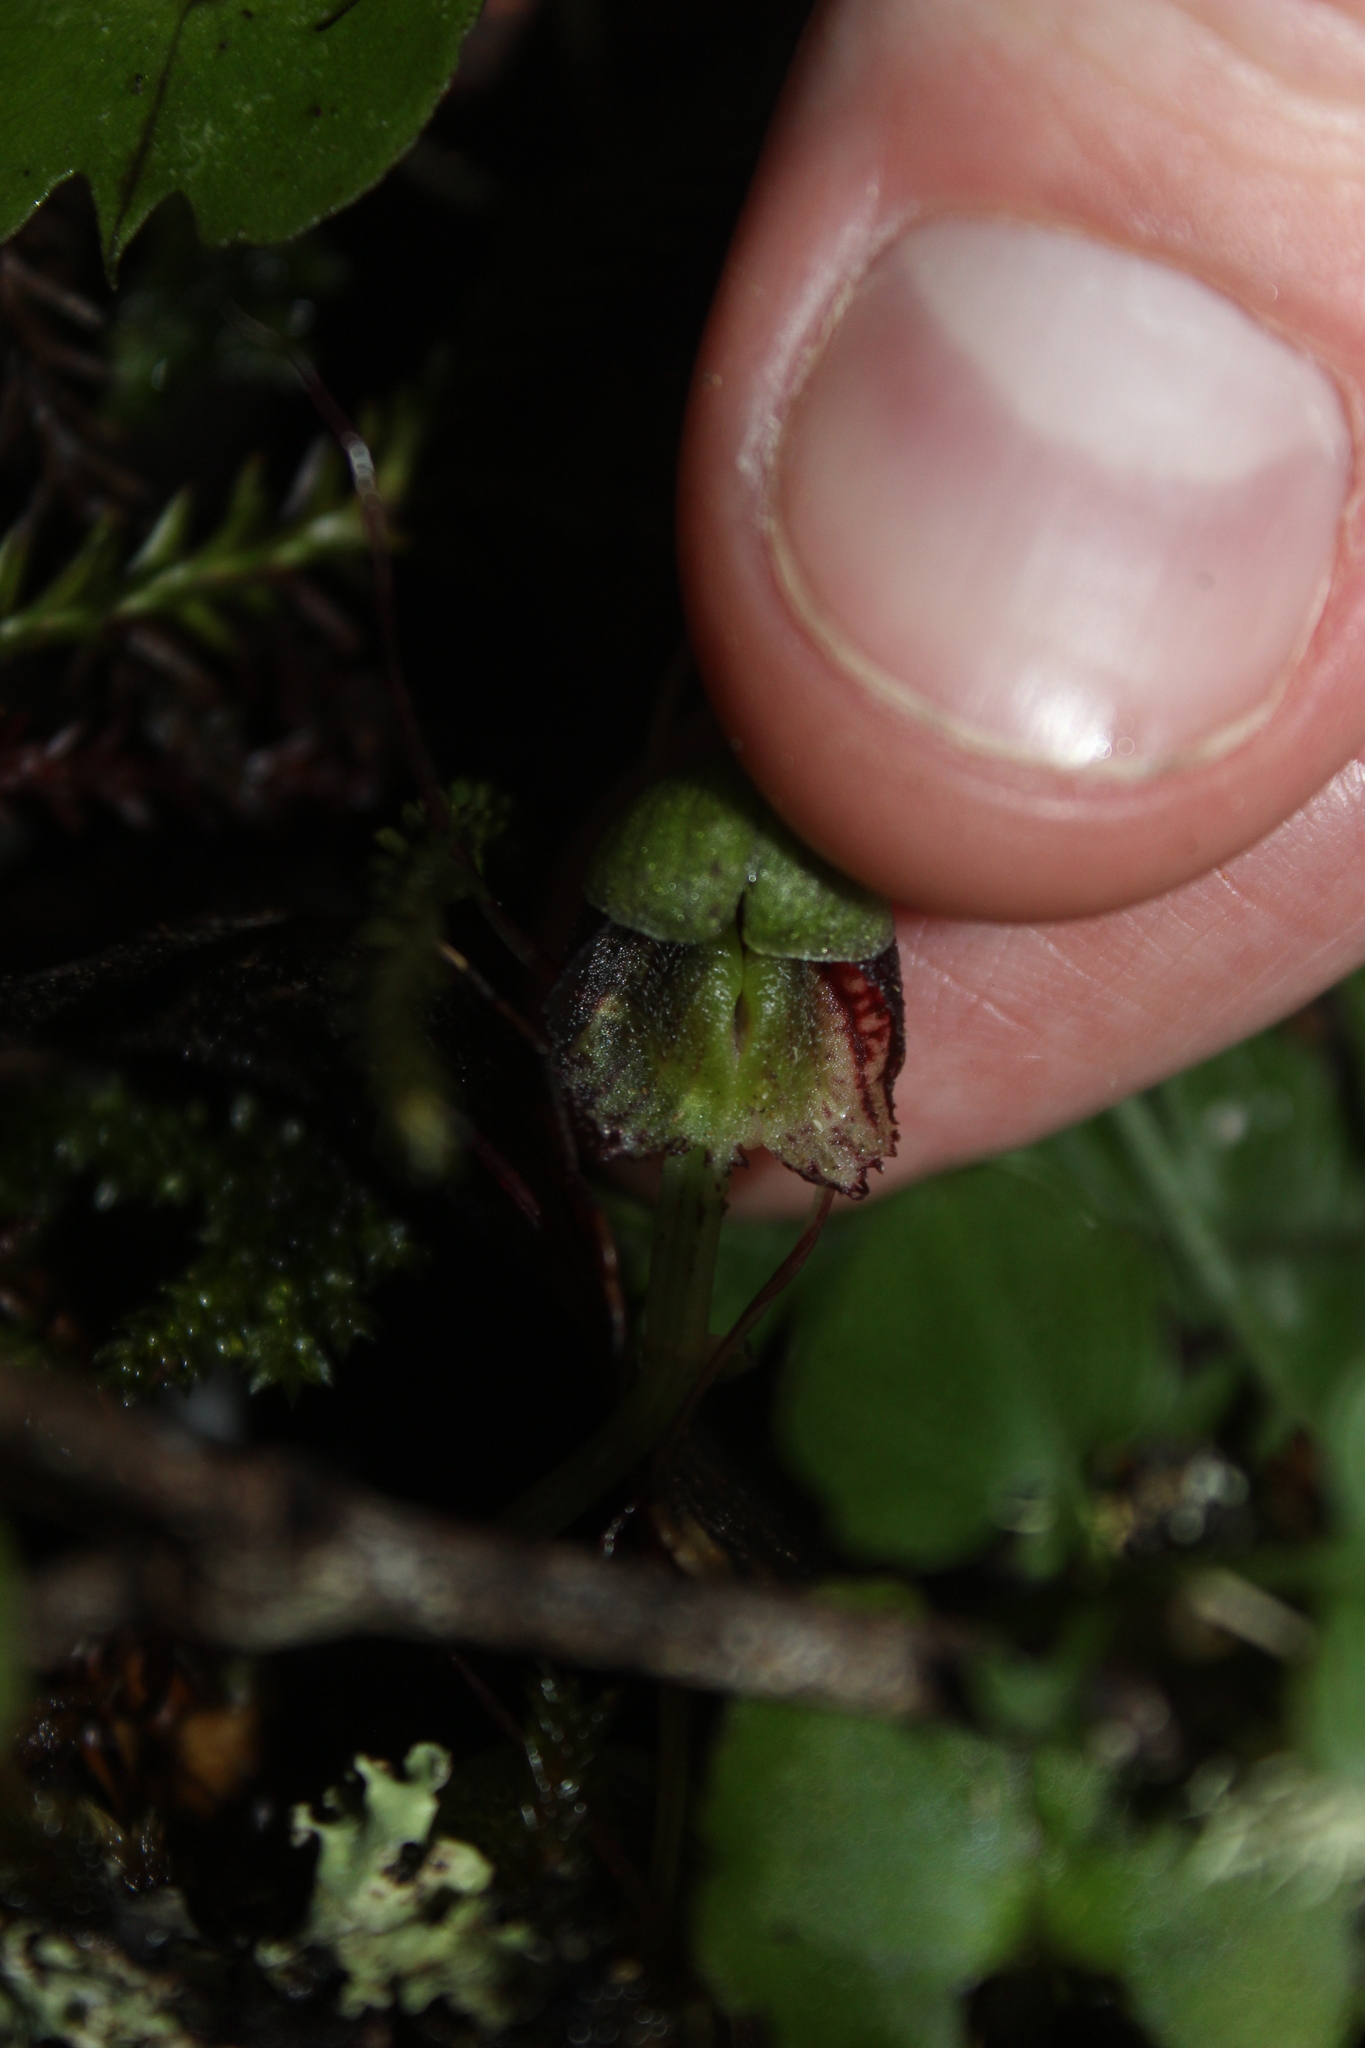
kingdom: Plantae
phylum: Tracheophyta
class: Liliopsida
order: Asparagales
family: Orchidaceae
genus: Corybas
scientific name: Corybas vitreus
